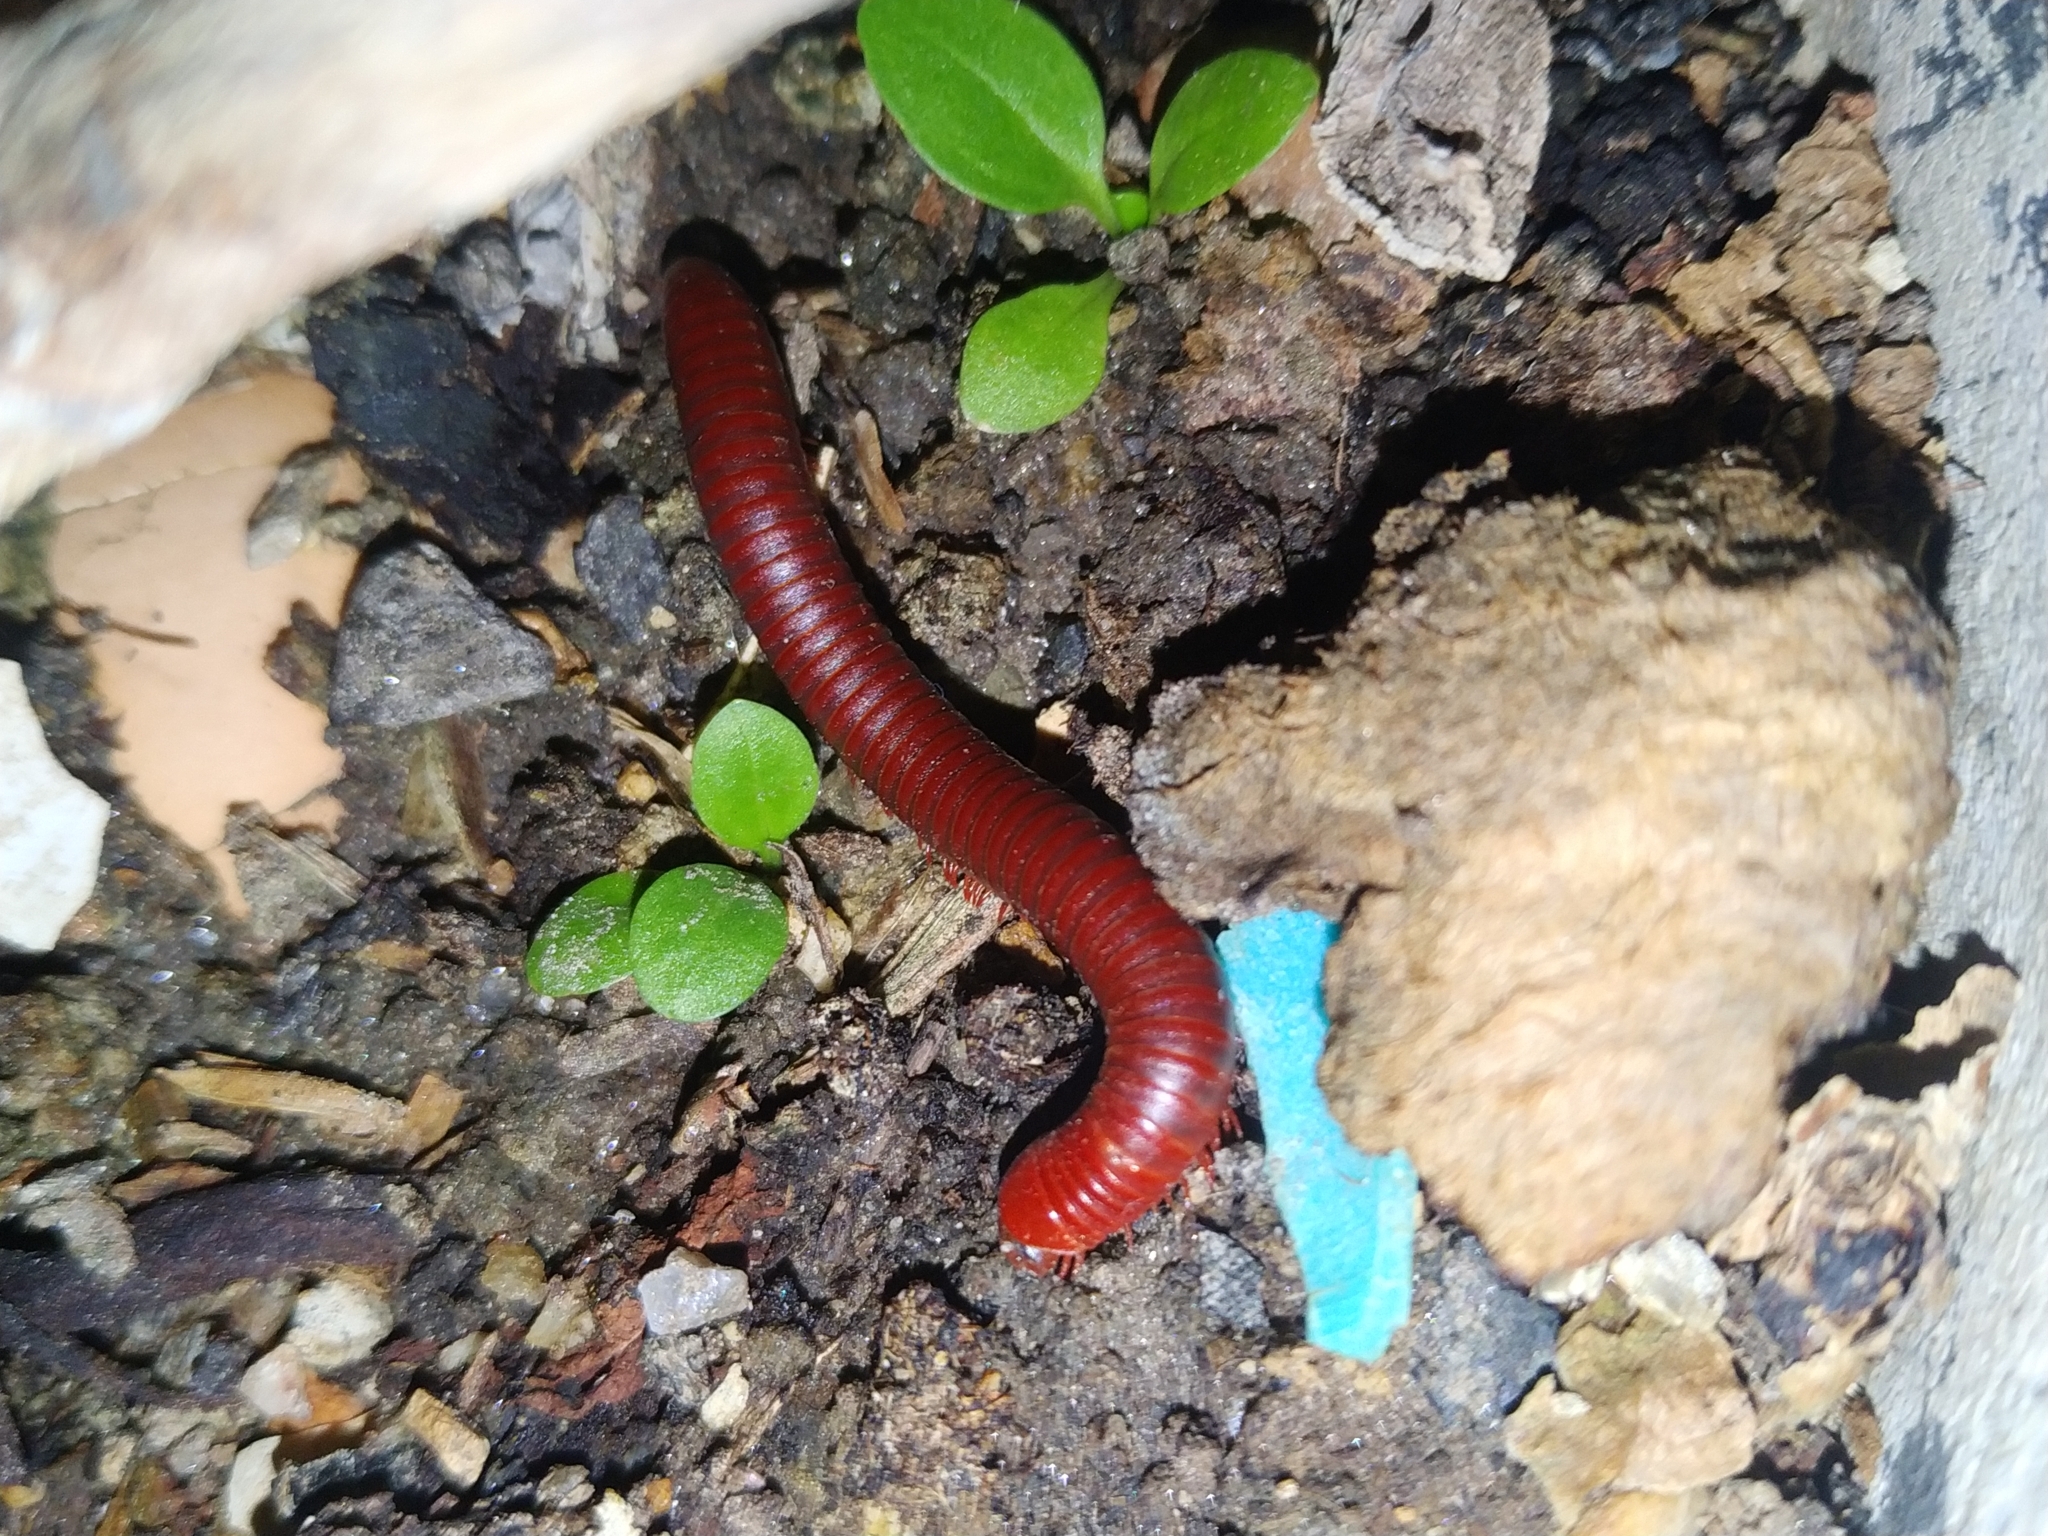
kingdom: Animalia
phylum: Arthropoda
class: Diplopoda
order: Spirobolida
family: Pachybolidae
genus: Trigoniulus
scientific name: Trigoniulus corallinus
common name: Millipede
